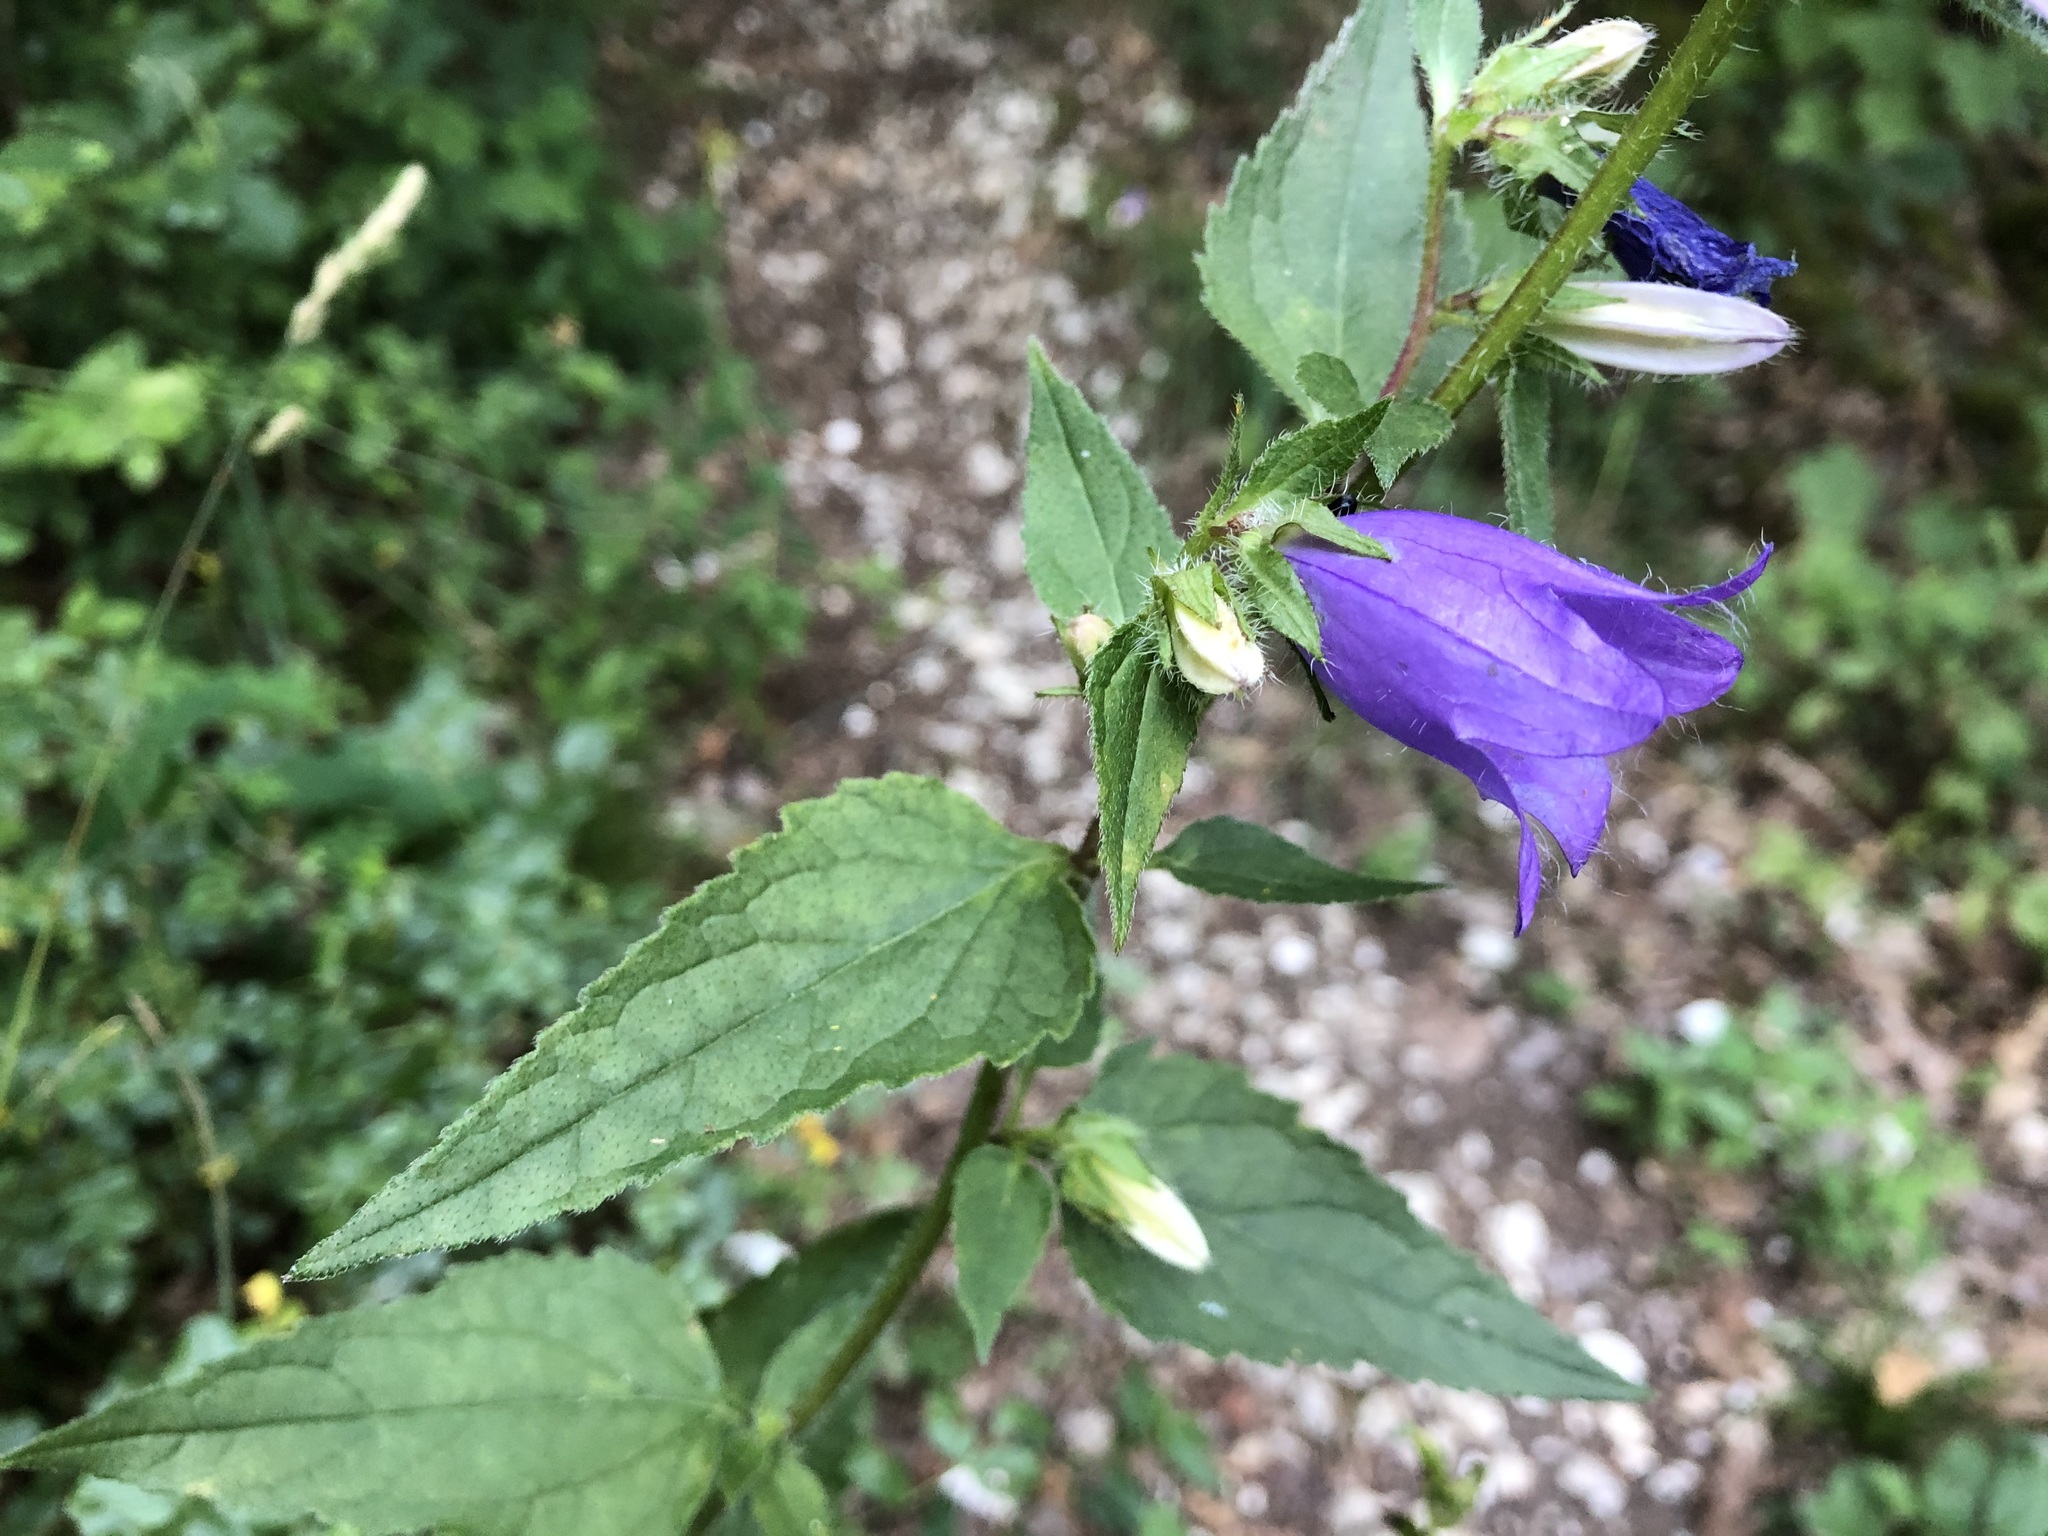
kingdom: Plantae
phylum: Tracheophyta
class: Magnoliopsida
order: Asterales
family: Campanulaceae
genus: Campanula
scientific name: Campanula trachelium
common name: Nettle-leaved bellflower
